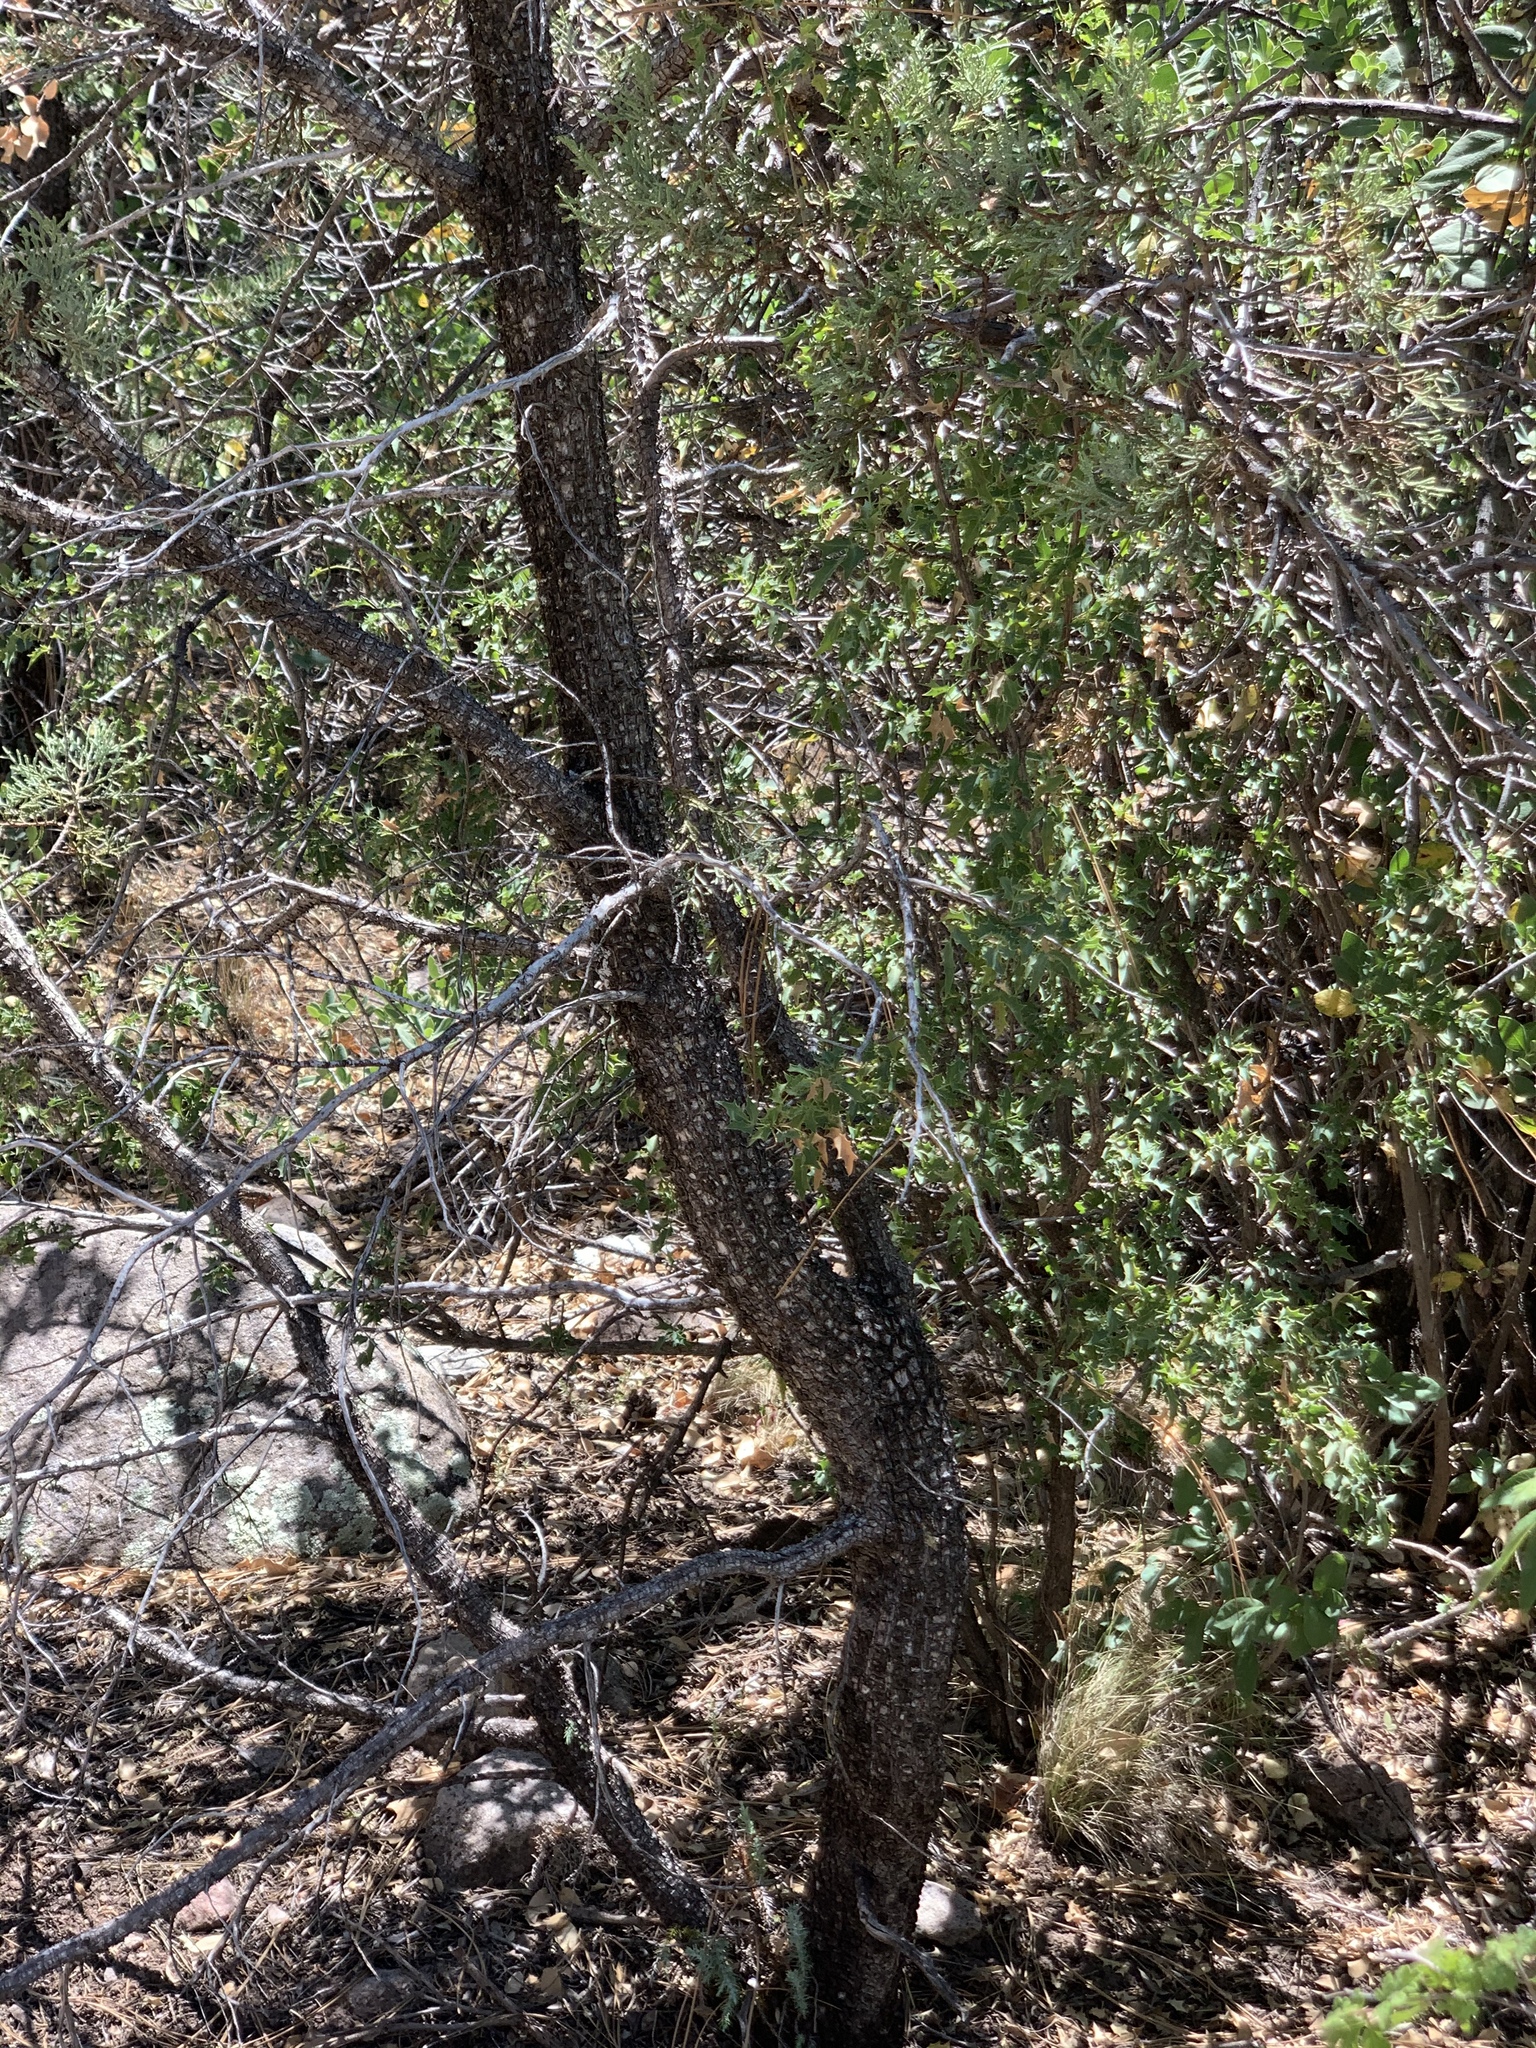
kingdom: Plantae
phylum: Tracheophyta
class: Pinopsida
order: Pinales
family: Cupressaceae
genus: Juniperus
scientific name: Juniperus deppeana
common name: Alligator juniper
